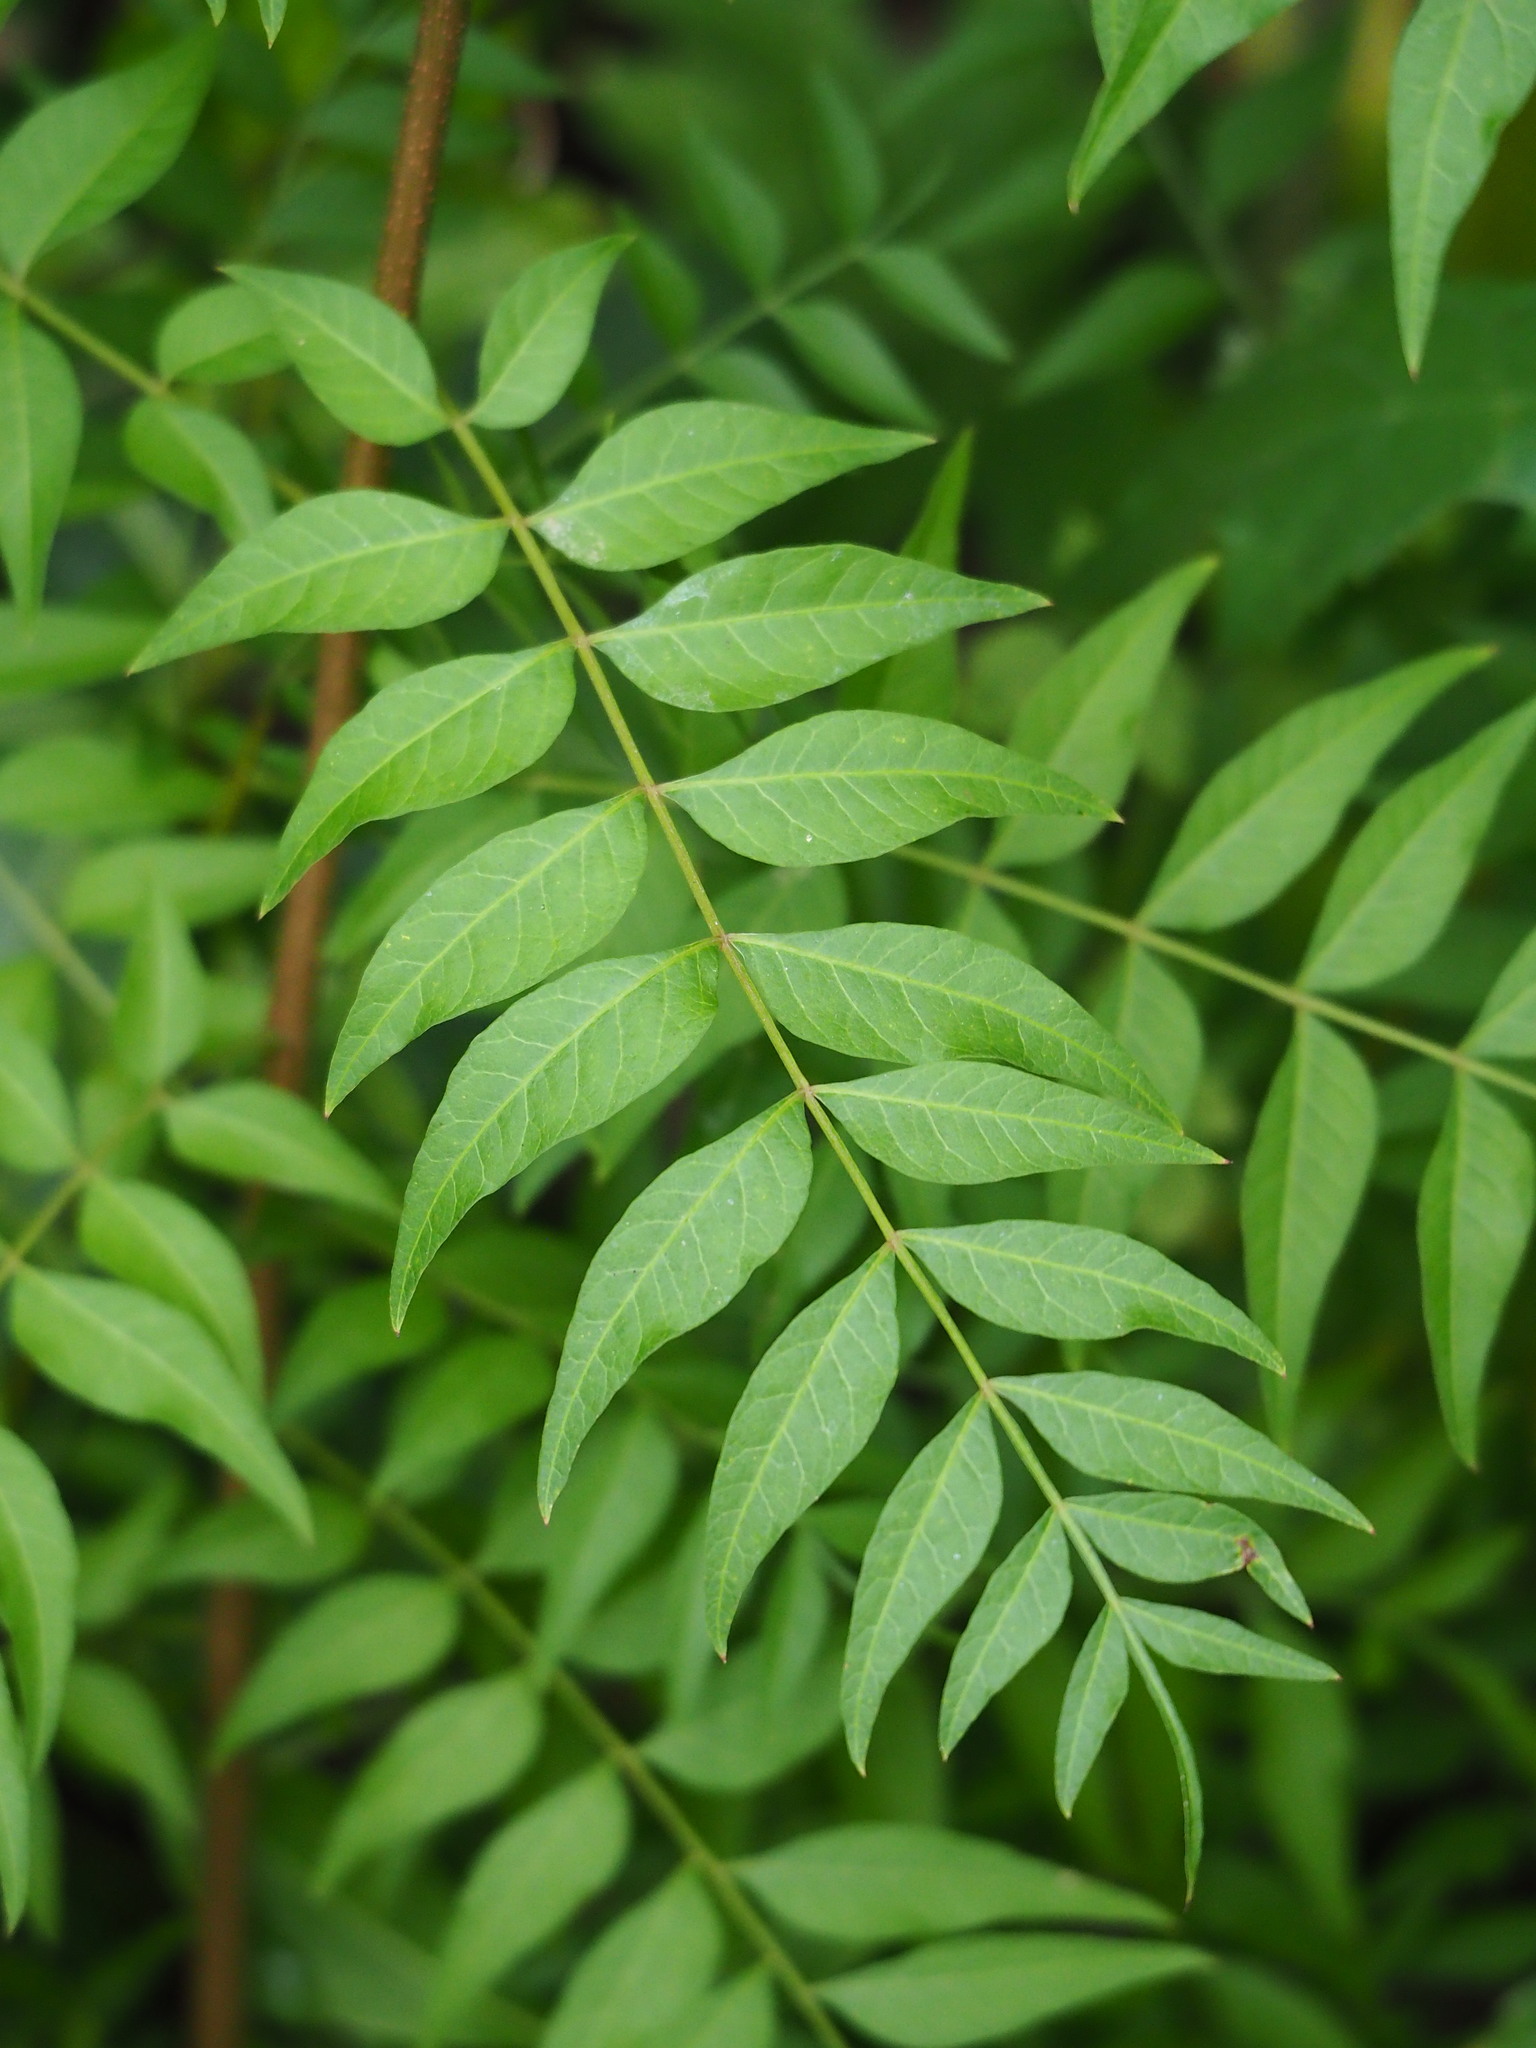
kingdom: Plantae
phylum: Tracheophyta
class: Magnoliopsida
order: Sapindales
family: Anacardiaceae
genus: Pistacia
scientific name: Pistacia chinensis
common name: Chinese pistache
